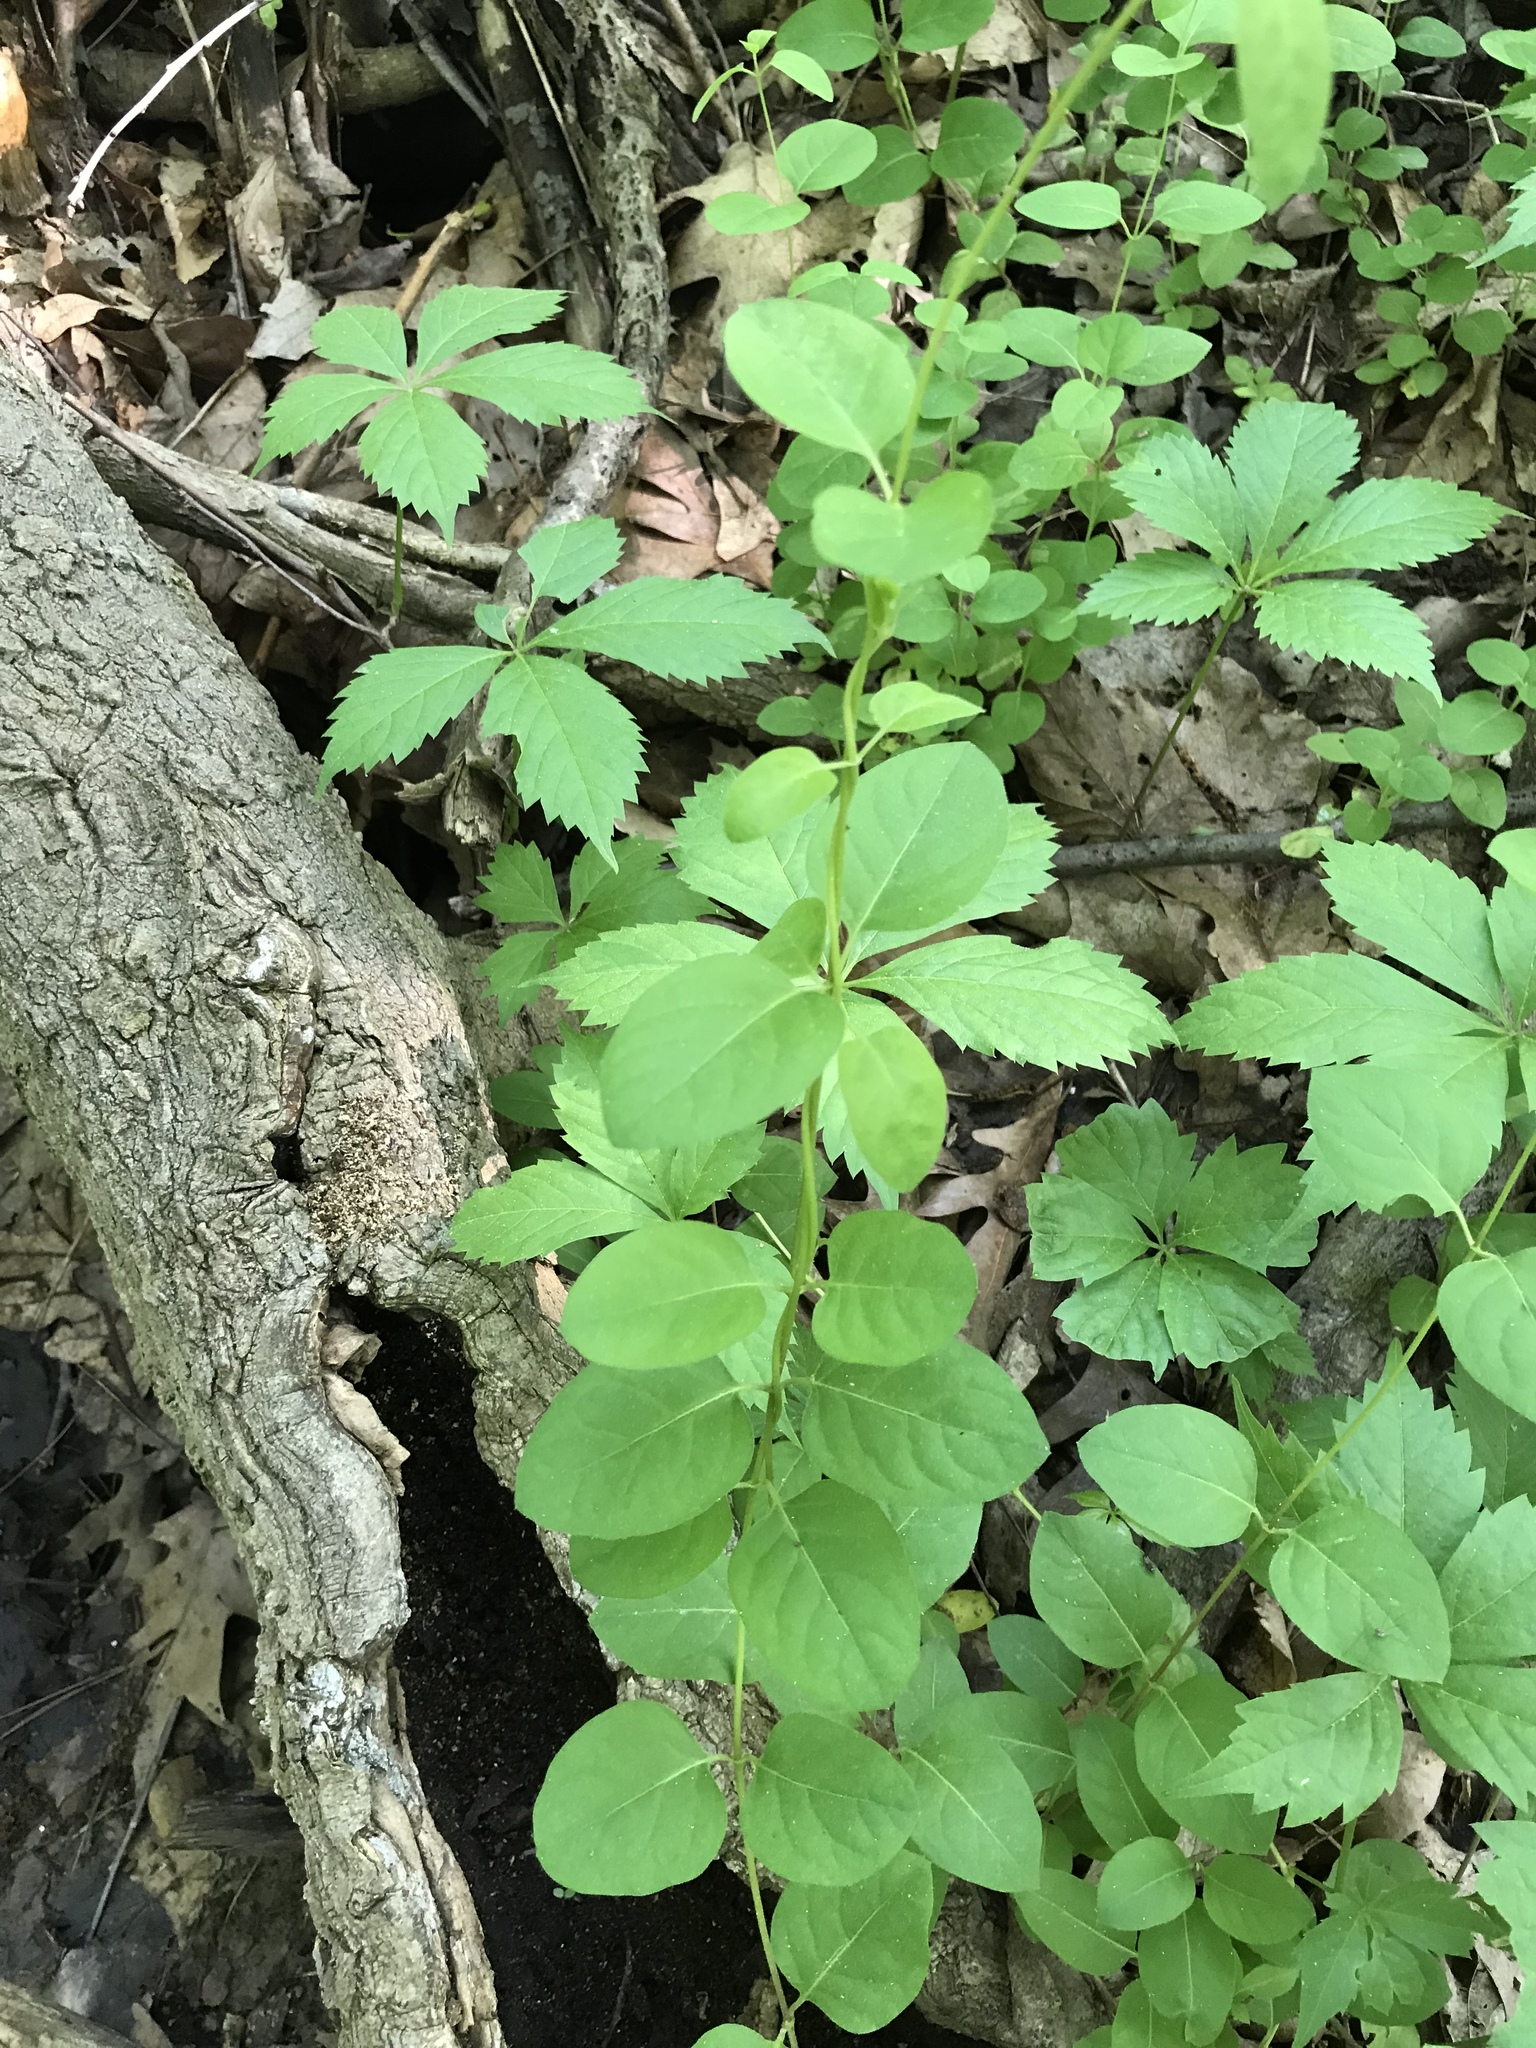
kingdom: Plantae
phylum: Tracheophyta
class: Magnoliopsida
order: Dipsacales
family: Caprifoliaceae
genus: Lonicera
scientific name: Lonicera japonica
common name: Japanese honeysuckle
